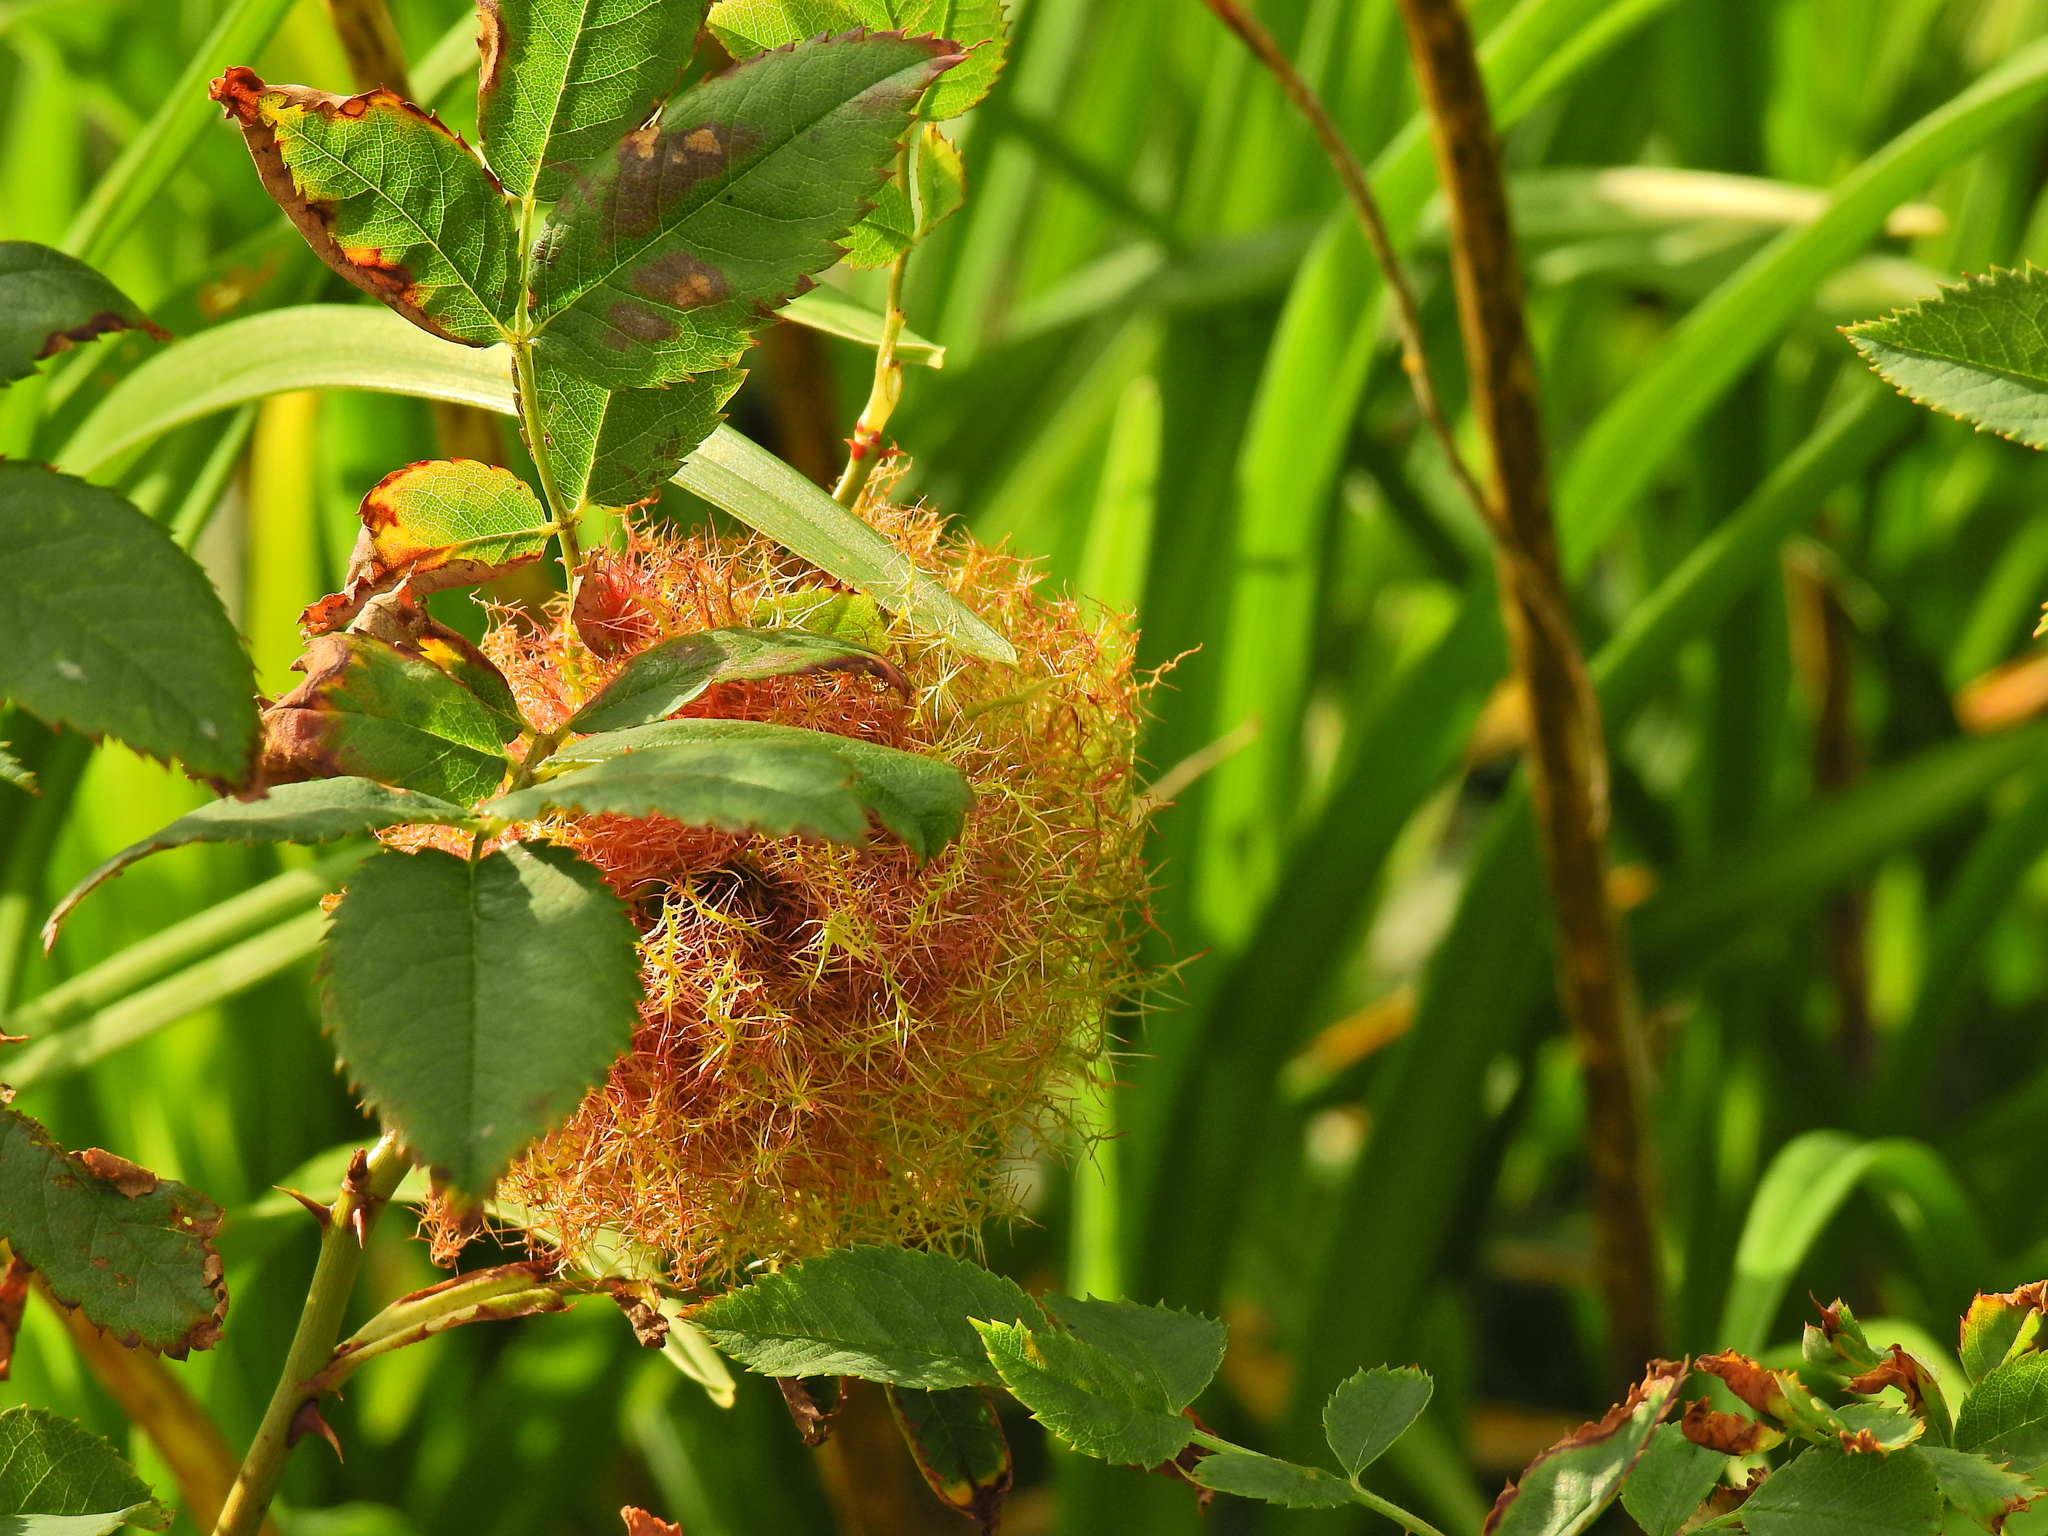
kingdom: Animalia
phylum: Arthropoda
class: Insecta
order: Hymenoptera
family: Cynipidae
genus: Diplolepis
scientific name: Diplolepis rosae
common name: Bedeguar gall
